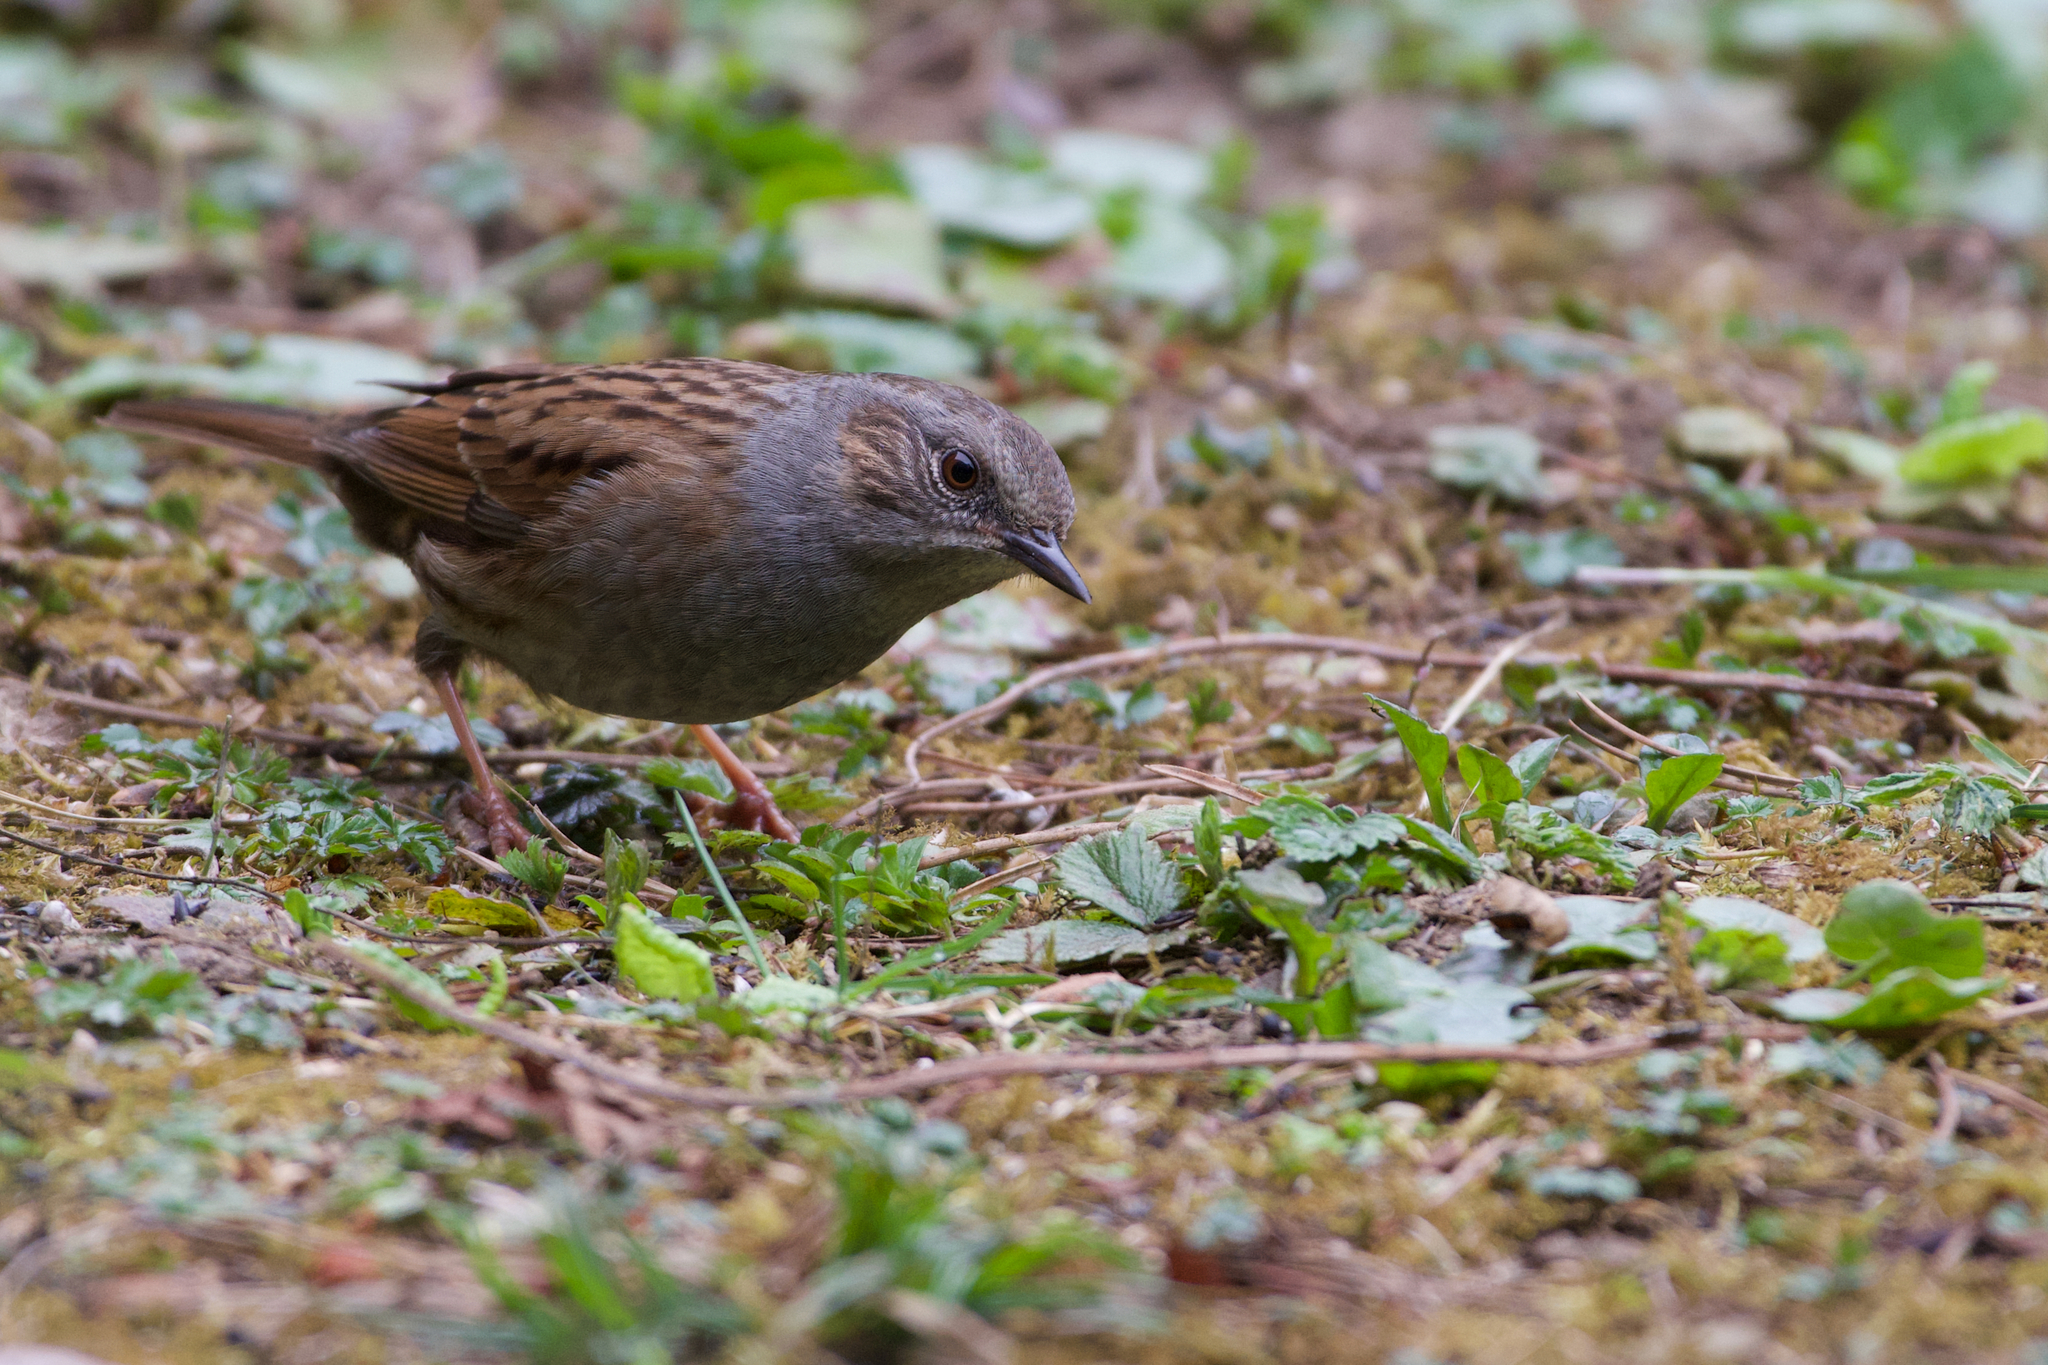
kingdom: Animalia
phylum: Chordata
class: Aves
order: Passeriformes
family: Prunellidae
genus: Prunella
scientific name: Prunella modularis
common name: Dunnock
